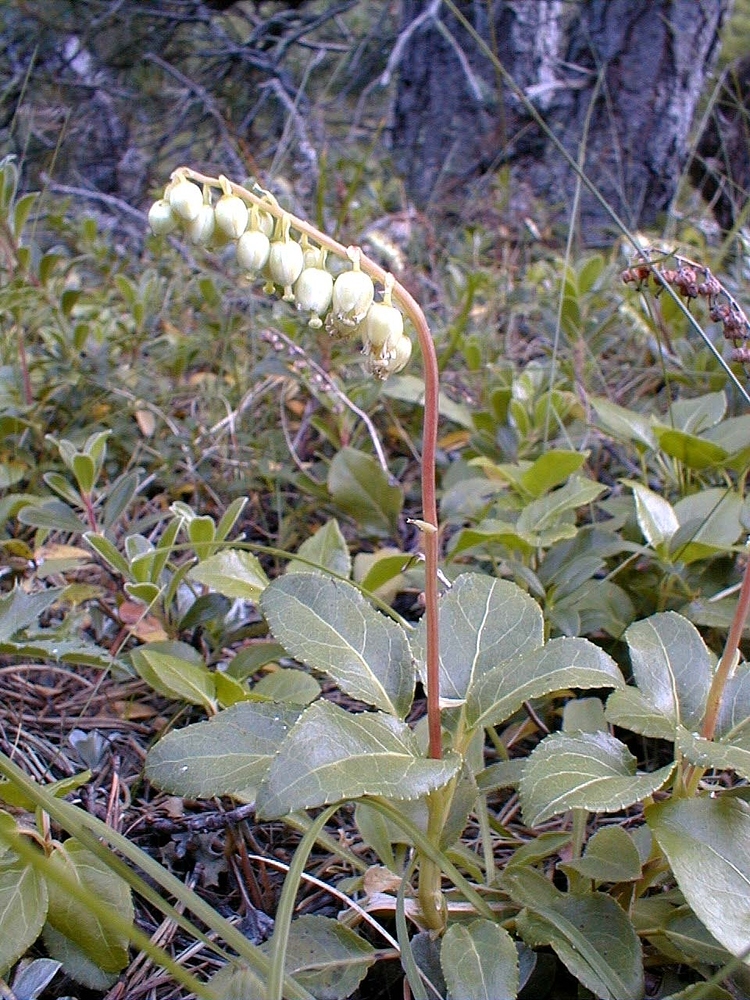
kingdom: Plantae
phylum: Tracheophyta
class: Magnoliopsida
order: Ericales
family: Ericaceae
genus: Orthilia
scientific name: Orthilia secunda
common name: One-sided orthilia
